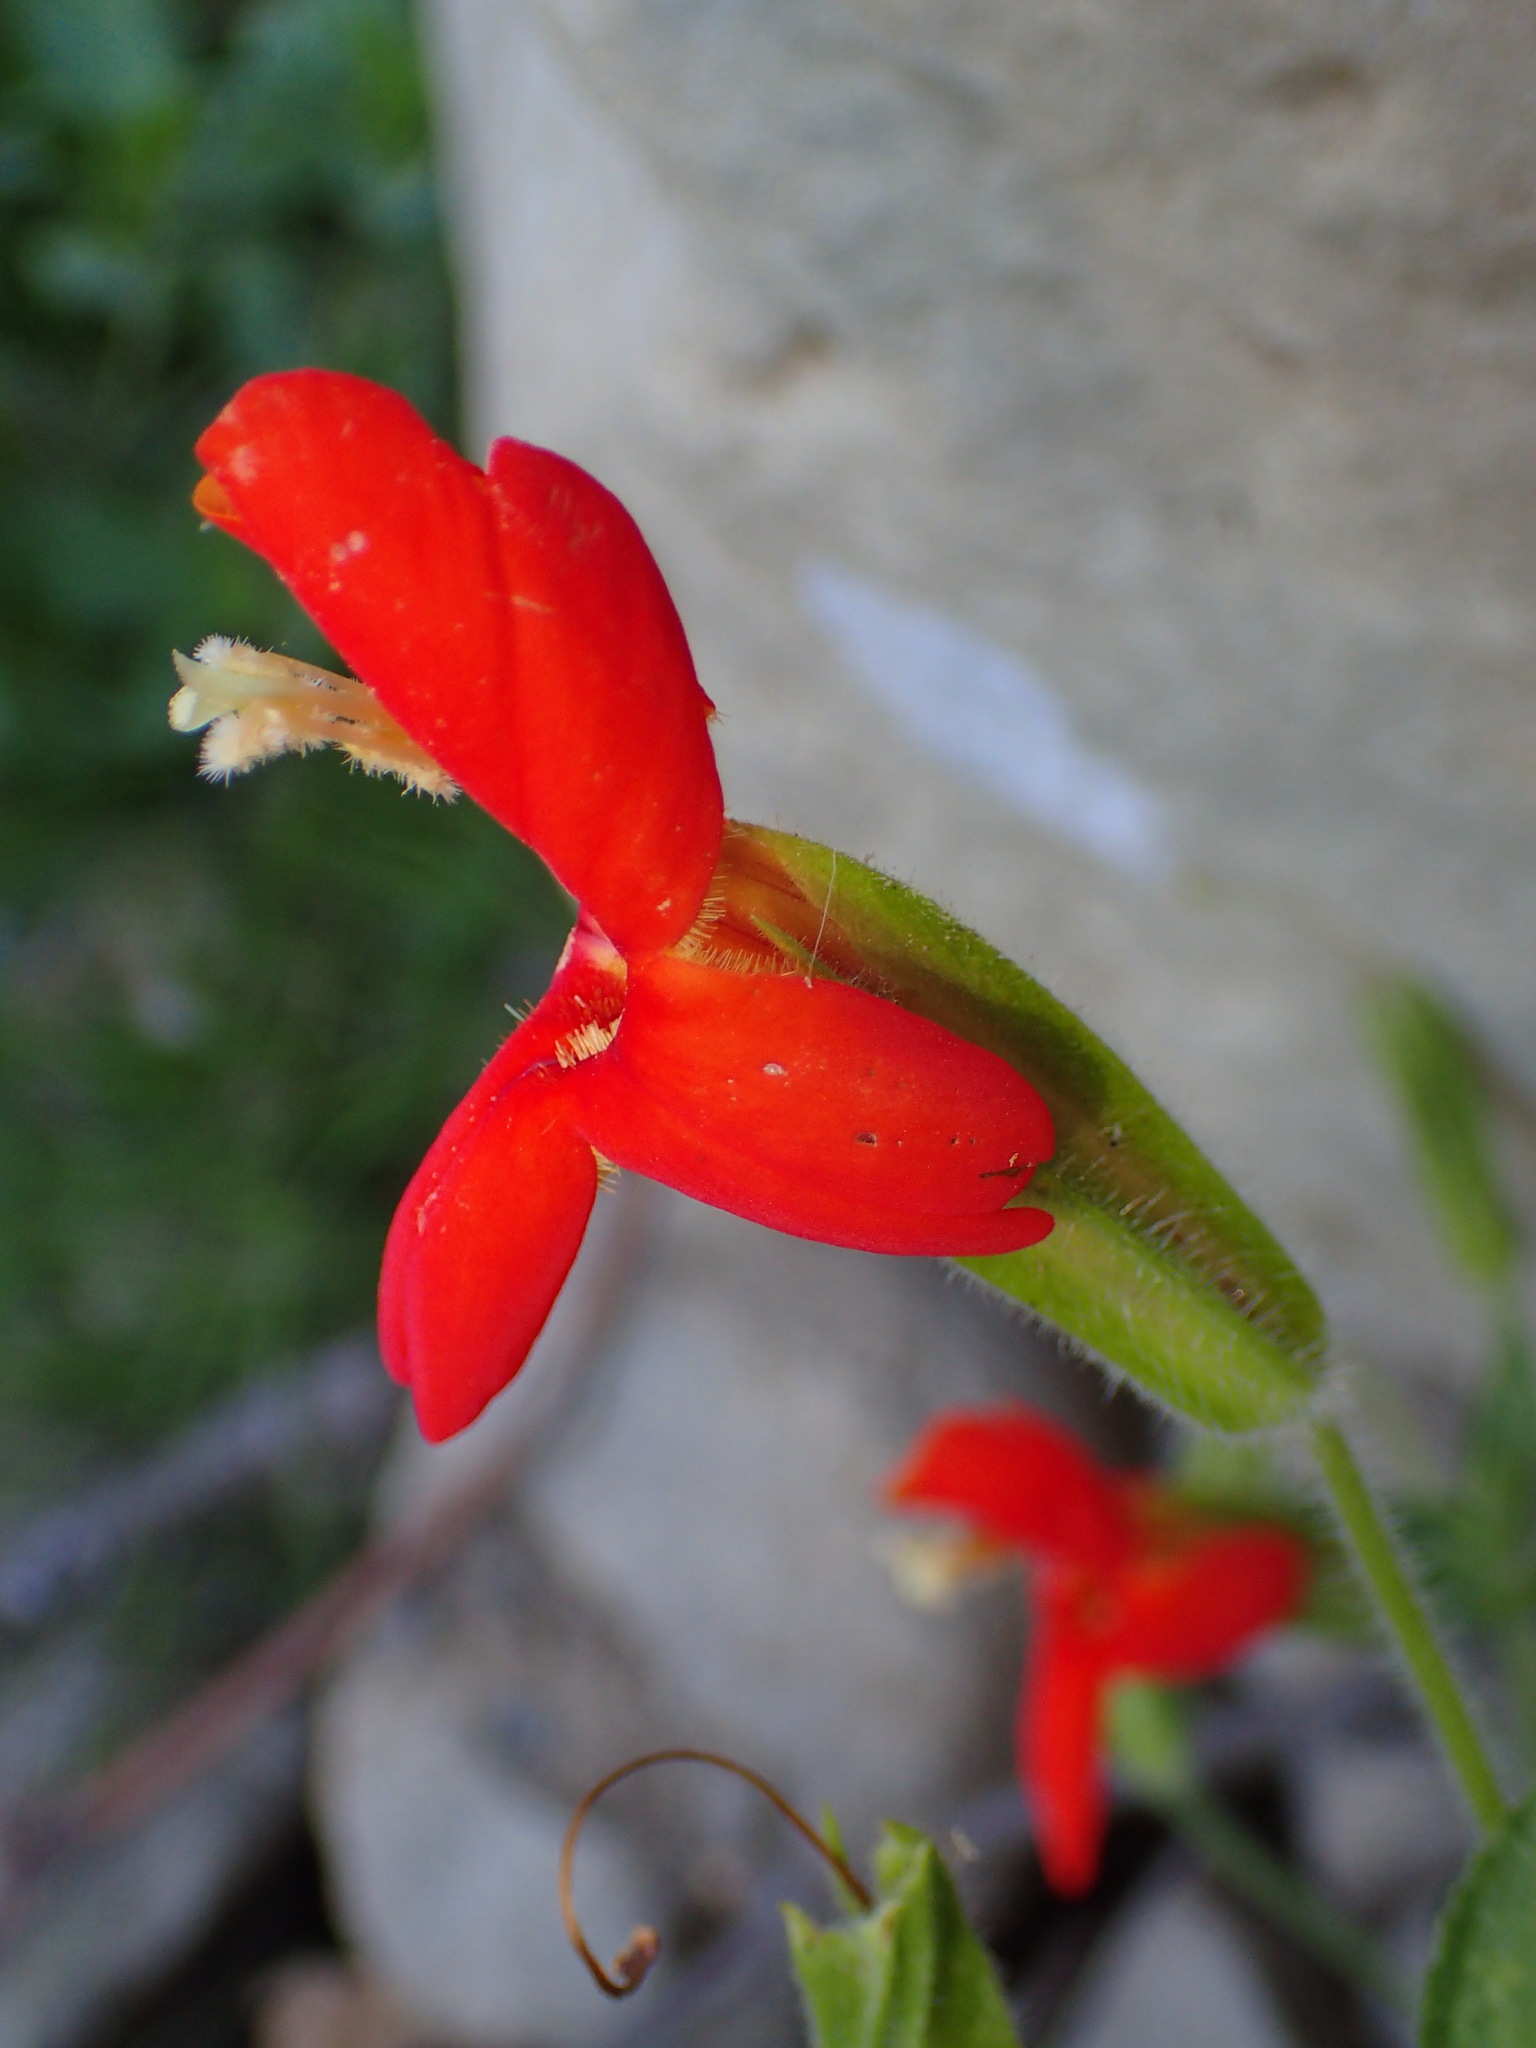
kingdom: Plantae
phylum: Tracheophyta
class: Magnoliopsida
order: Lamiales
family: Phrymaceae
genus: Erythranthe
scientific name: Erythranthe cardinalis
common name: Scarlet monkey-flower
